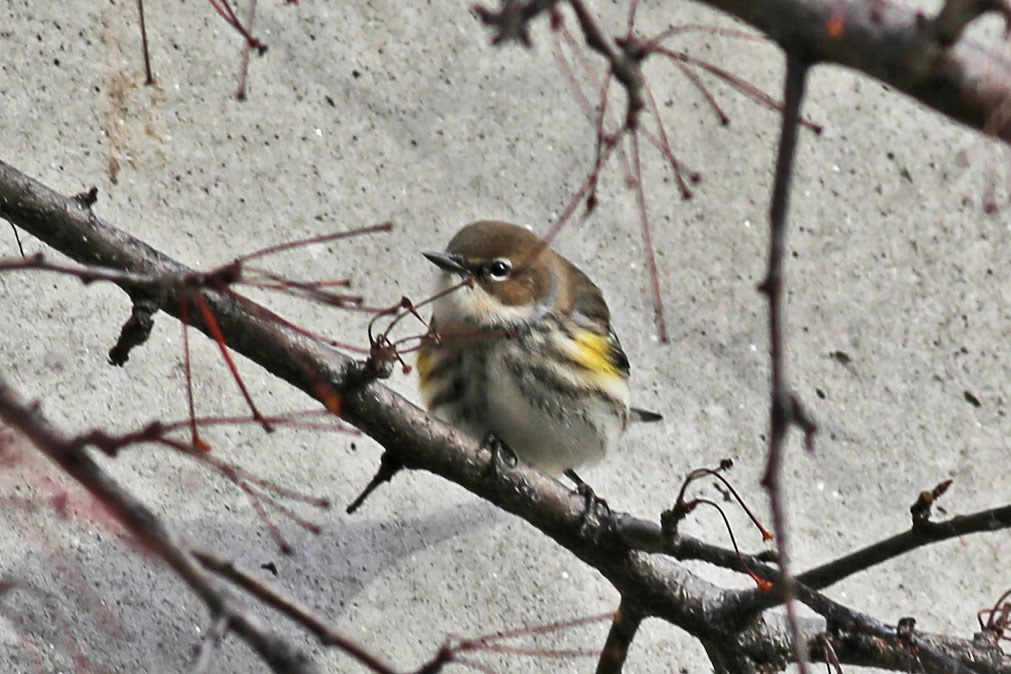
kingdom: Animalia
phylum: Chordata
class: Aves
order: Passeriformes
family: Parulidae
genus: Setophaga
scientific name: Setophaga coronata
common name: Myrtle warbler
